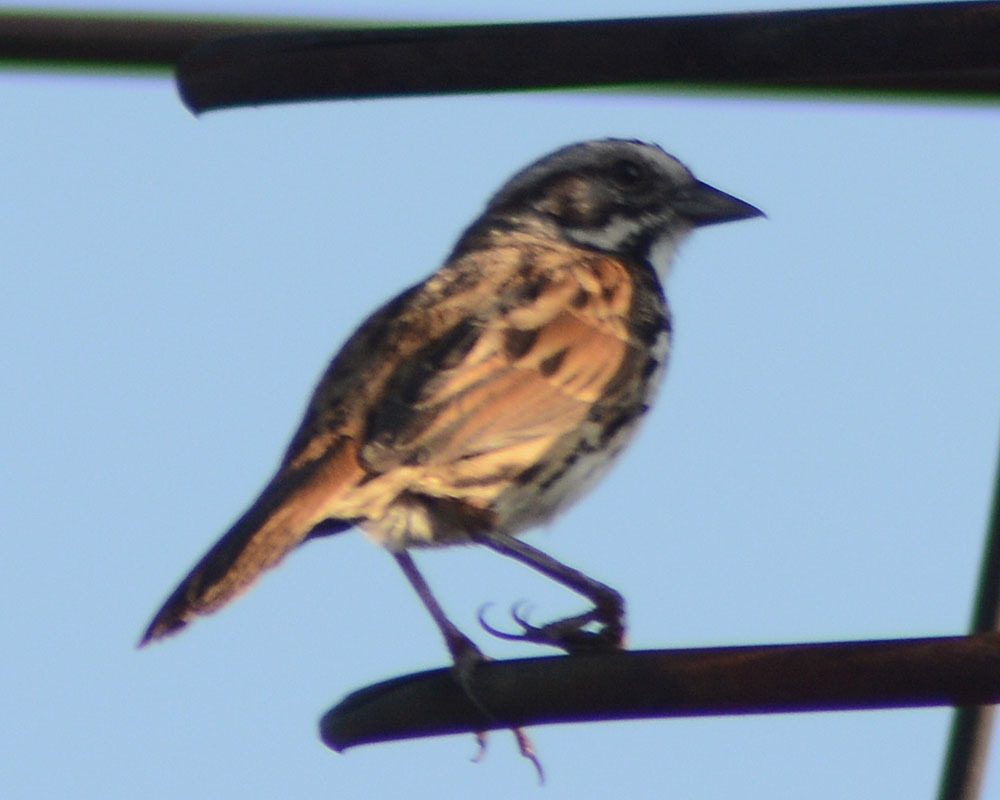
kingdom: Animalia
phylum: Chordata
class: Aves
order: Passeriformes
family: Passerellidae
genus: Melospiza
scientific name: Melospiza melodia
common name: Song sparrow
